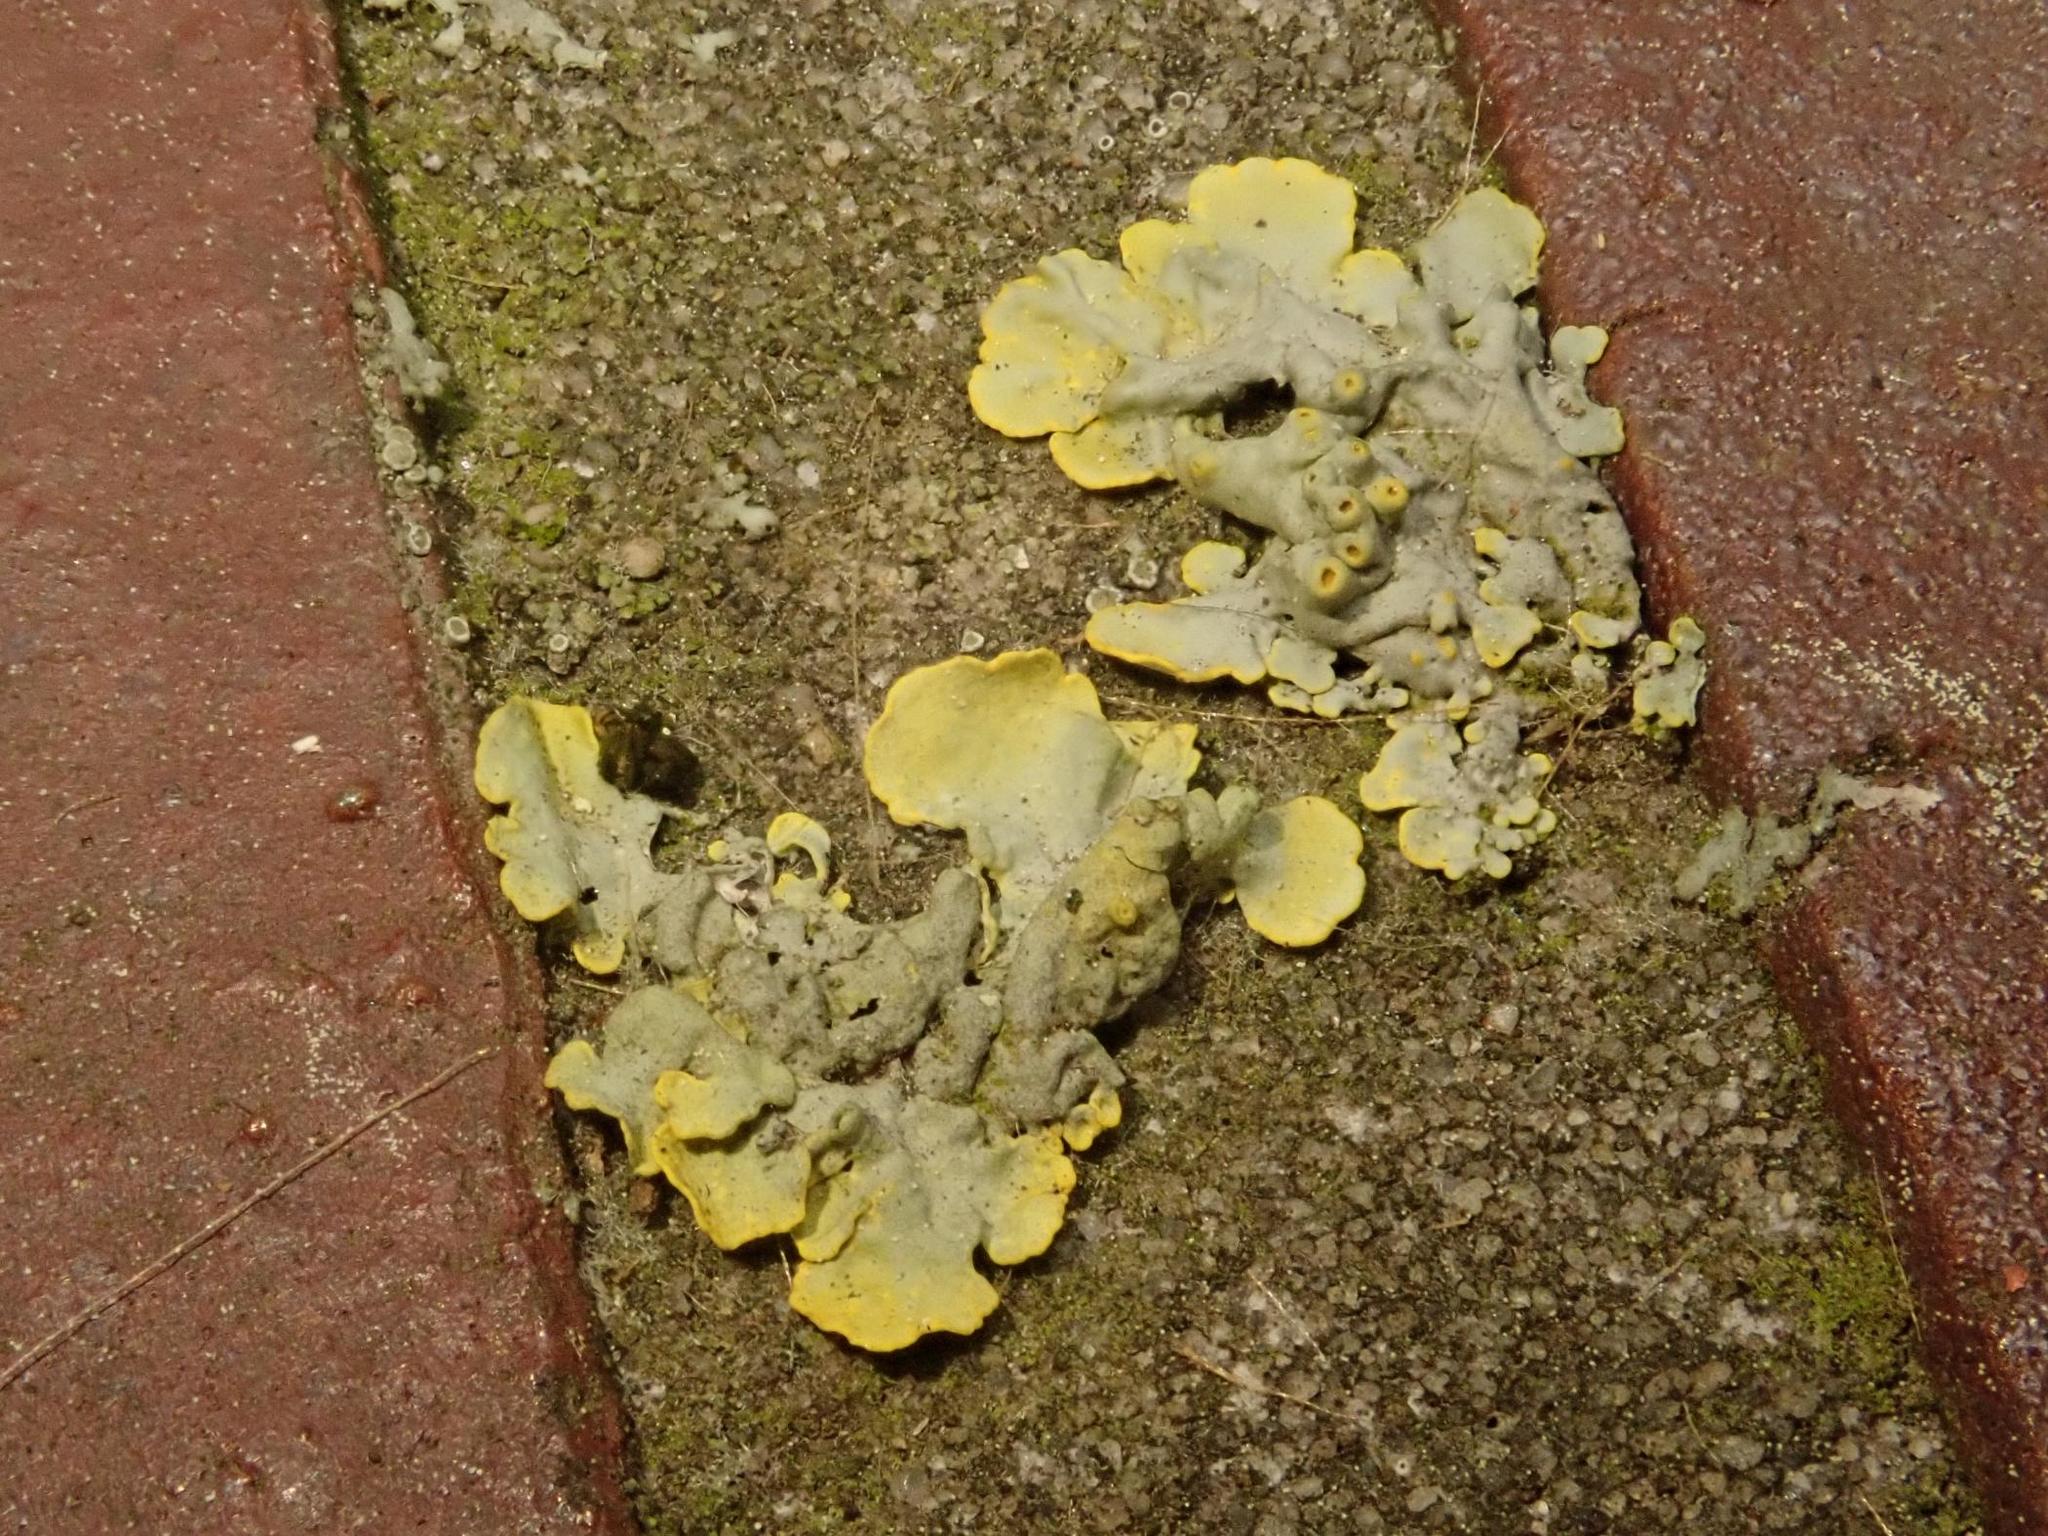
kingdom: Fungi
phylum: Ascomycota
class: Lecanoromycetes
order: Teloschistales
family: Teloschistaceae
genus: Xanthoria
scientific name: Xanthoria parietina
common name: Common orange lichen
